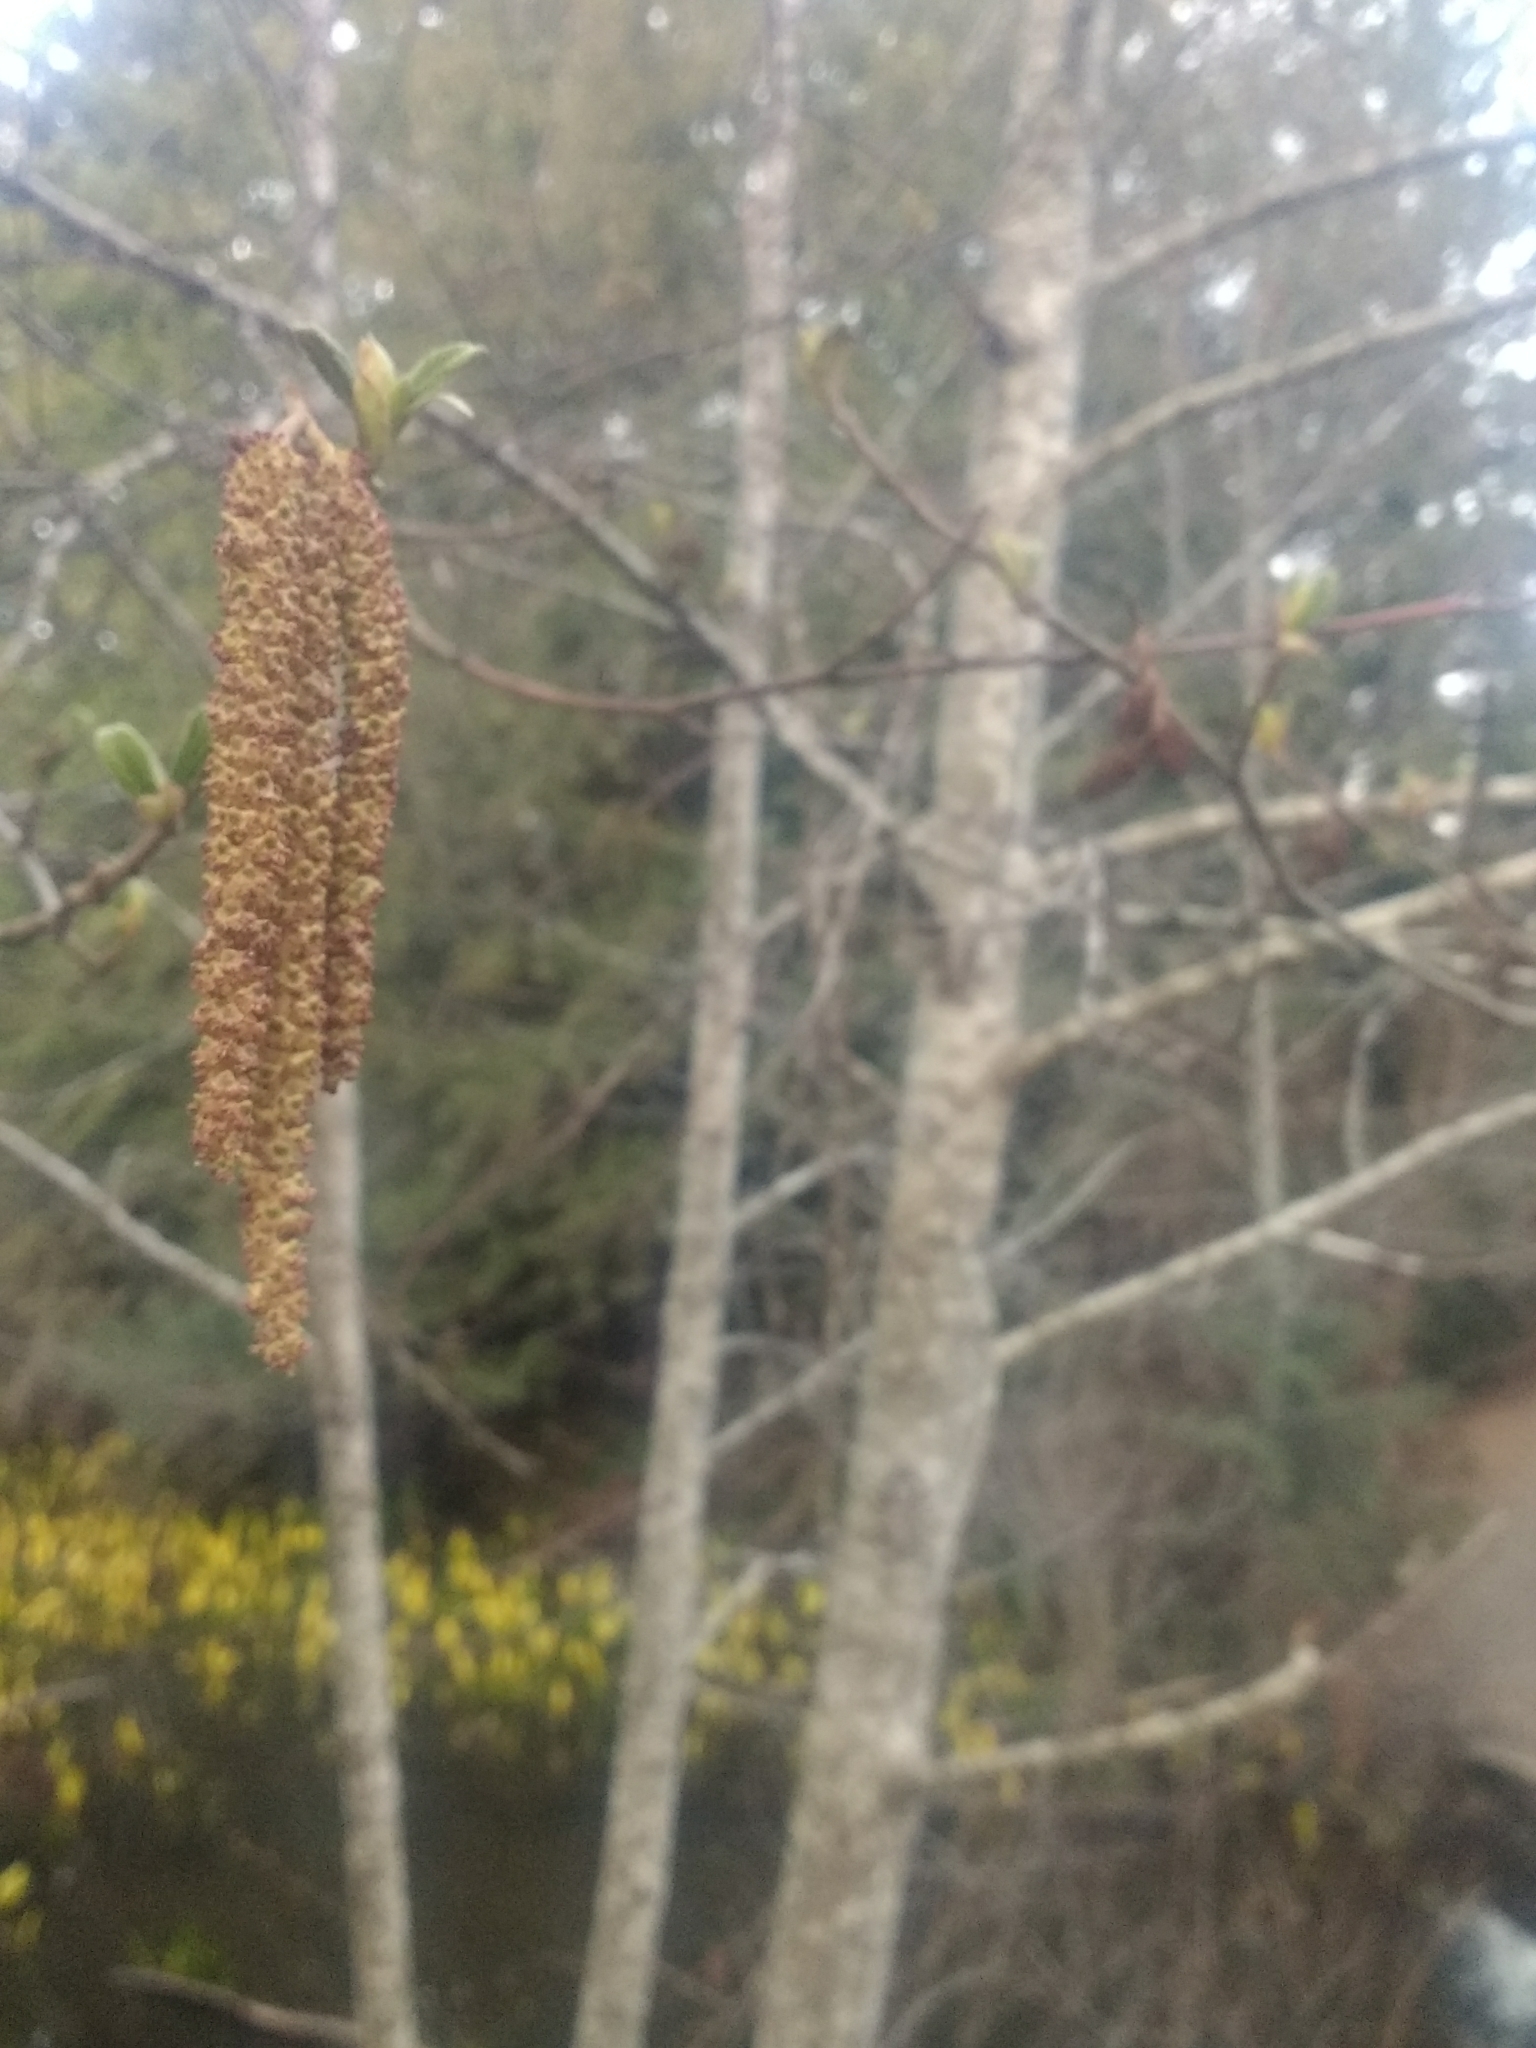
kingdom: Plantae
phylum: Tracheophyta
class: Magnoliopsida
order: Fagales
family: Betulaceae
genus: Alnus
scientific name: Alnus rubra
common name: Red alder
